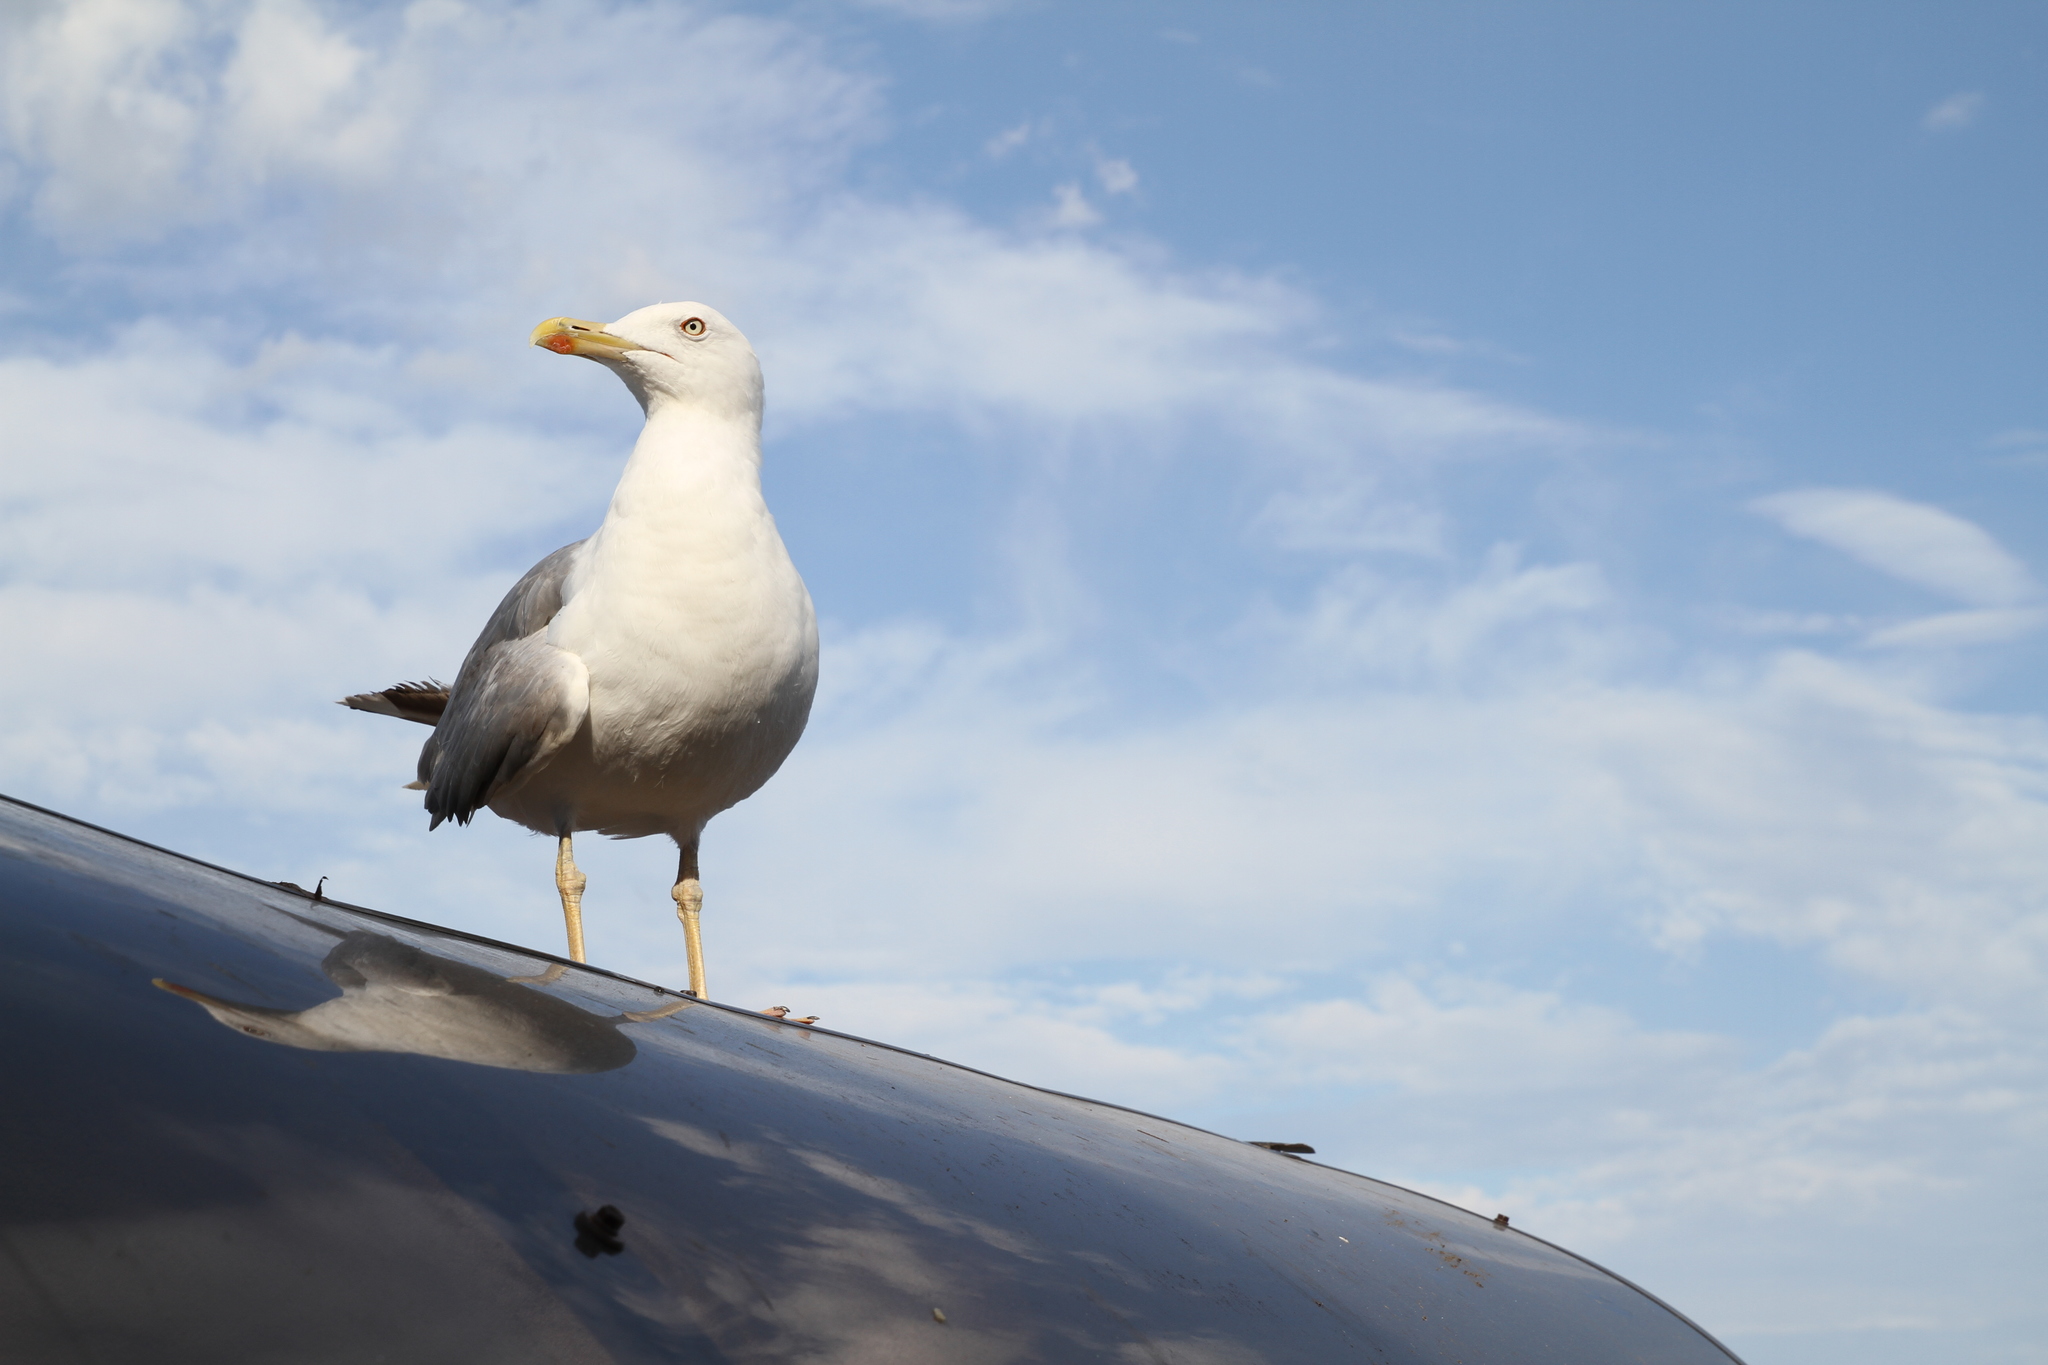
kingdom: Animalia
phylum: Chordata
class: Aves
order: Charadriiformes
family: Laridae
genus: Larus
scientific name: Larus michahellis
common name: Yellow-legged gull
